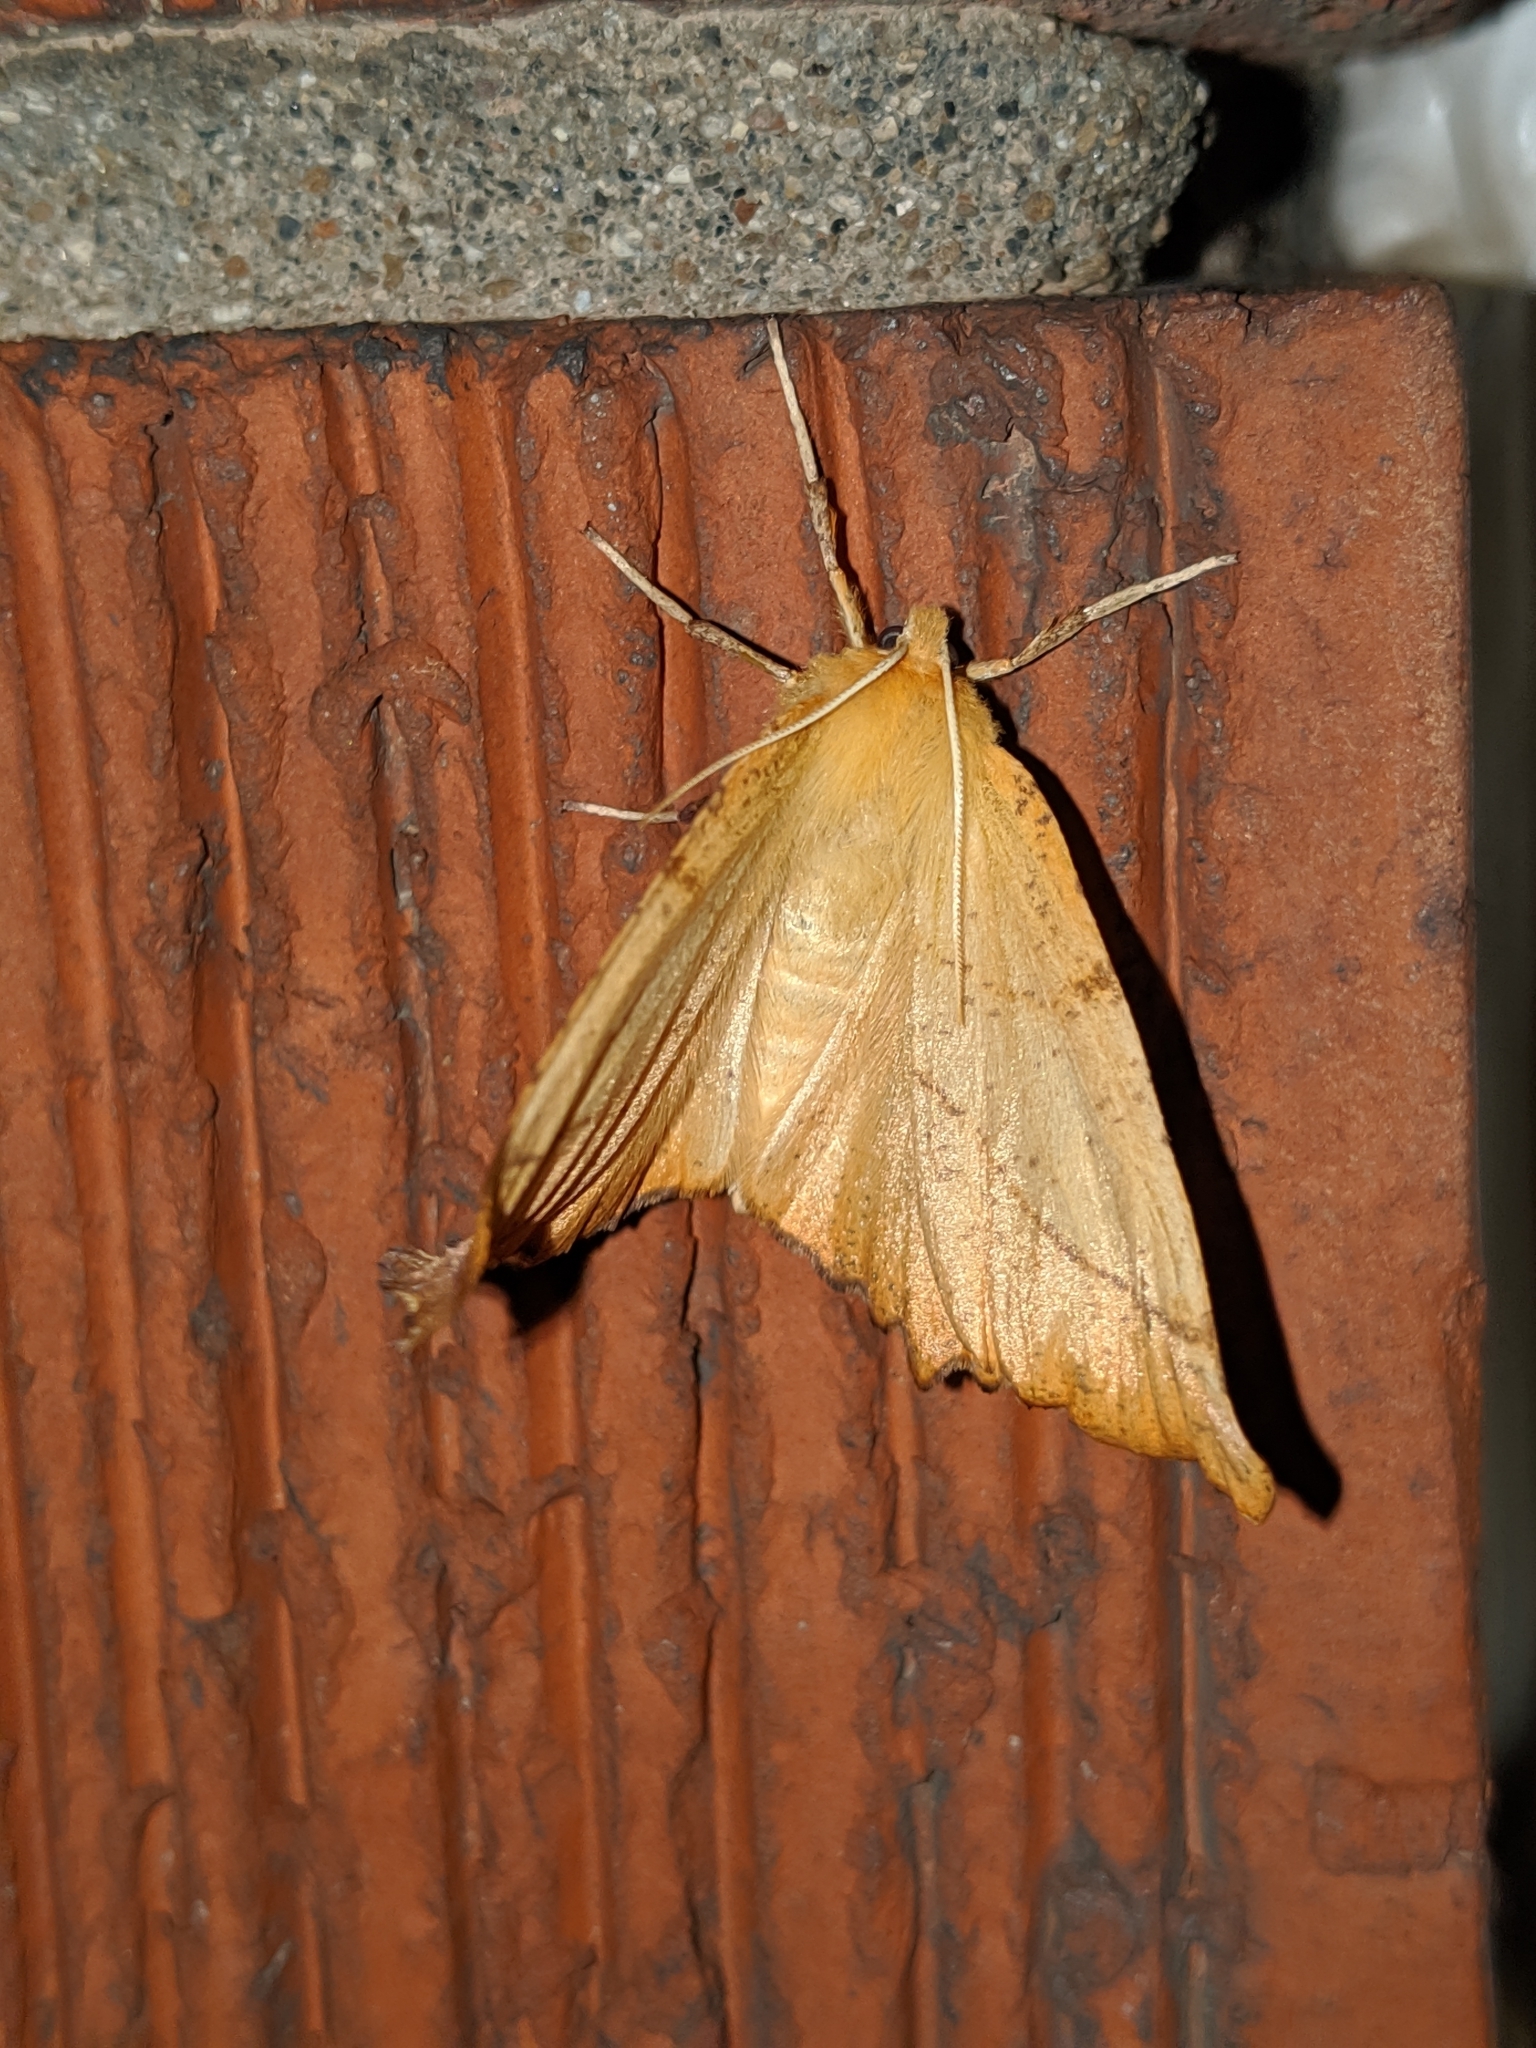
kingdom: Animalia
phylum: Arthropoda
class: Insecta
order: Lepidoptera
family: Geometridae
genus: Ennomos
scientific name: Ennomos magnaria
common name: Maple spanworm
